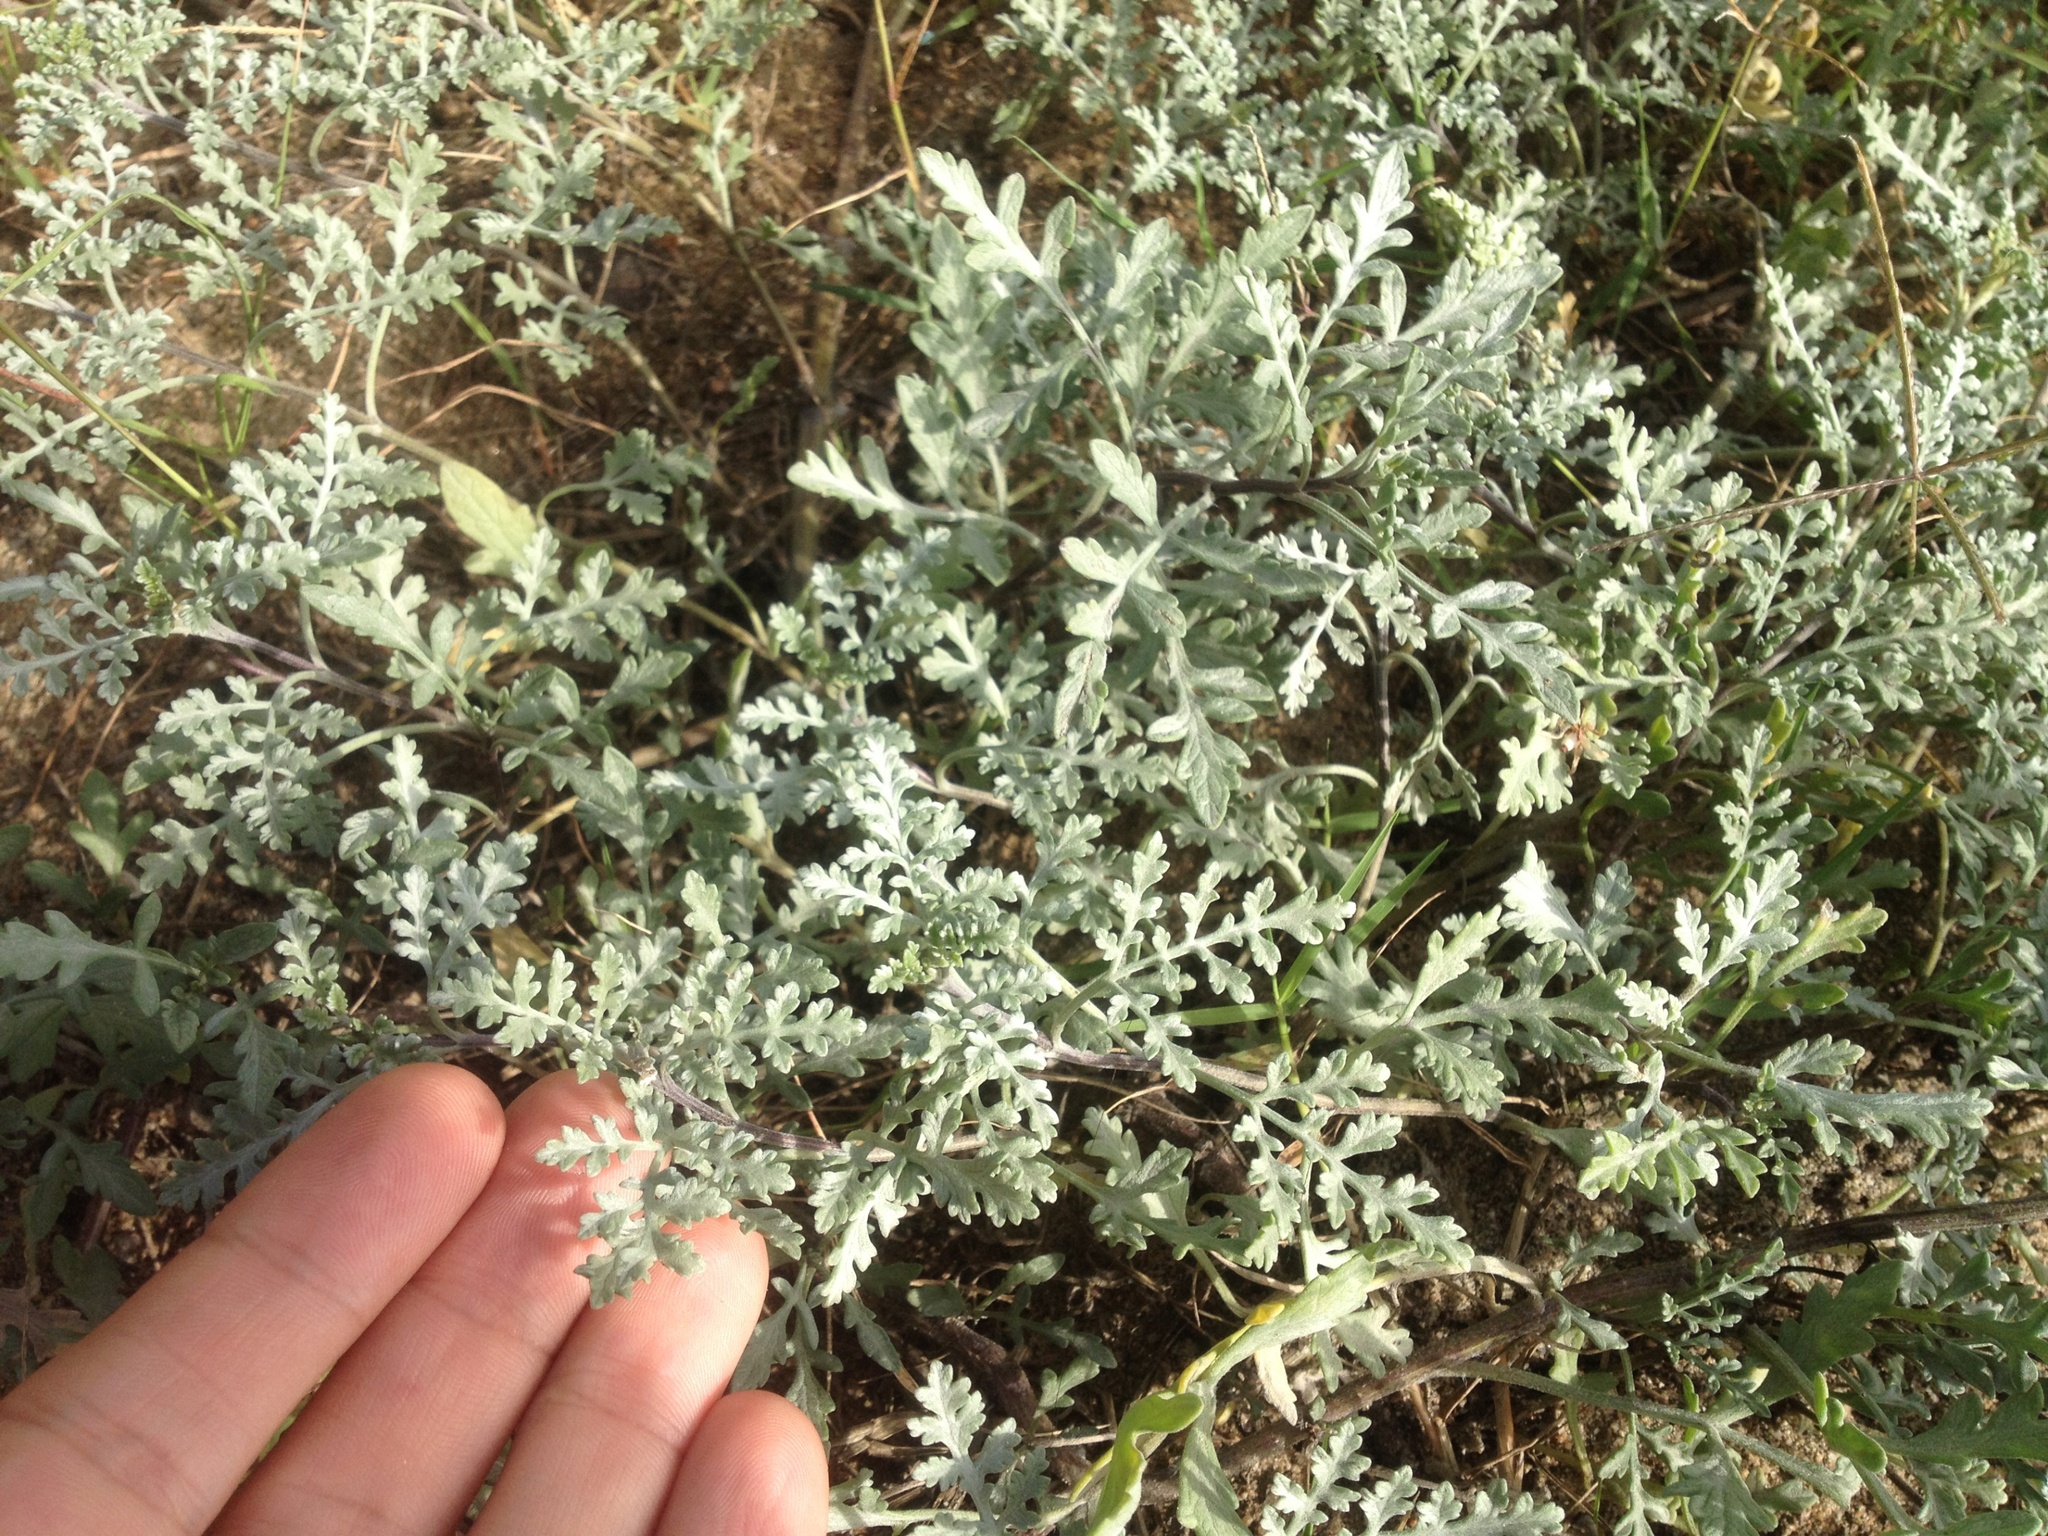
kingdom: Plantae
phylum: Tracheophyta
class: Magnoliopsida
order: Asterales
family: Asteraceae
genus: Ambrosia
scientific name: Ambrosia chamissonis
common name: Beachbur
